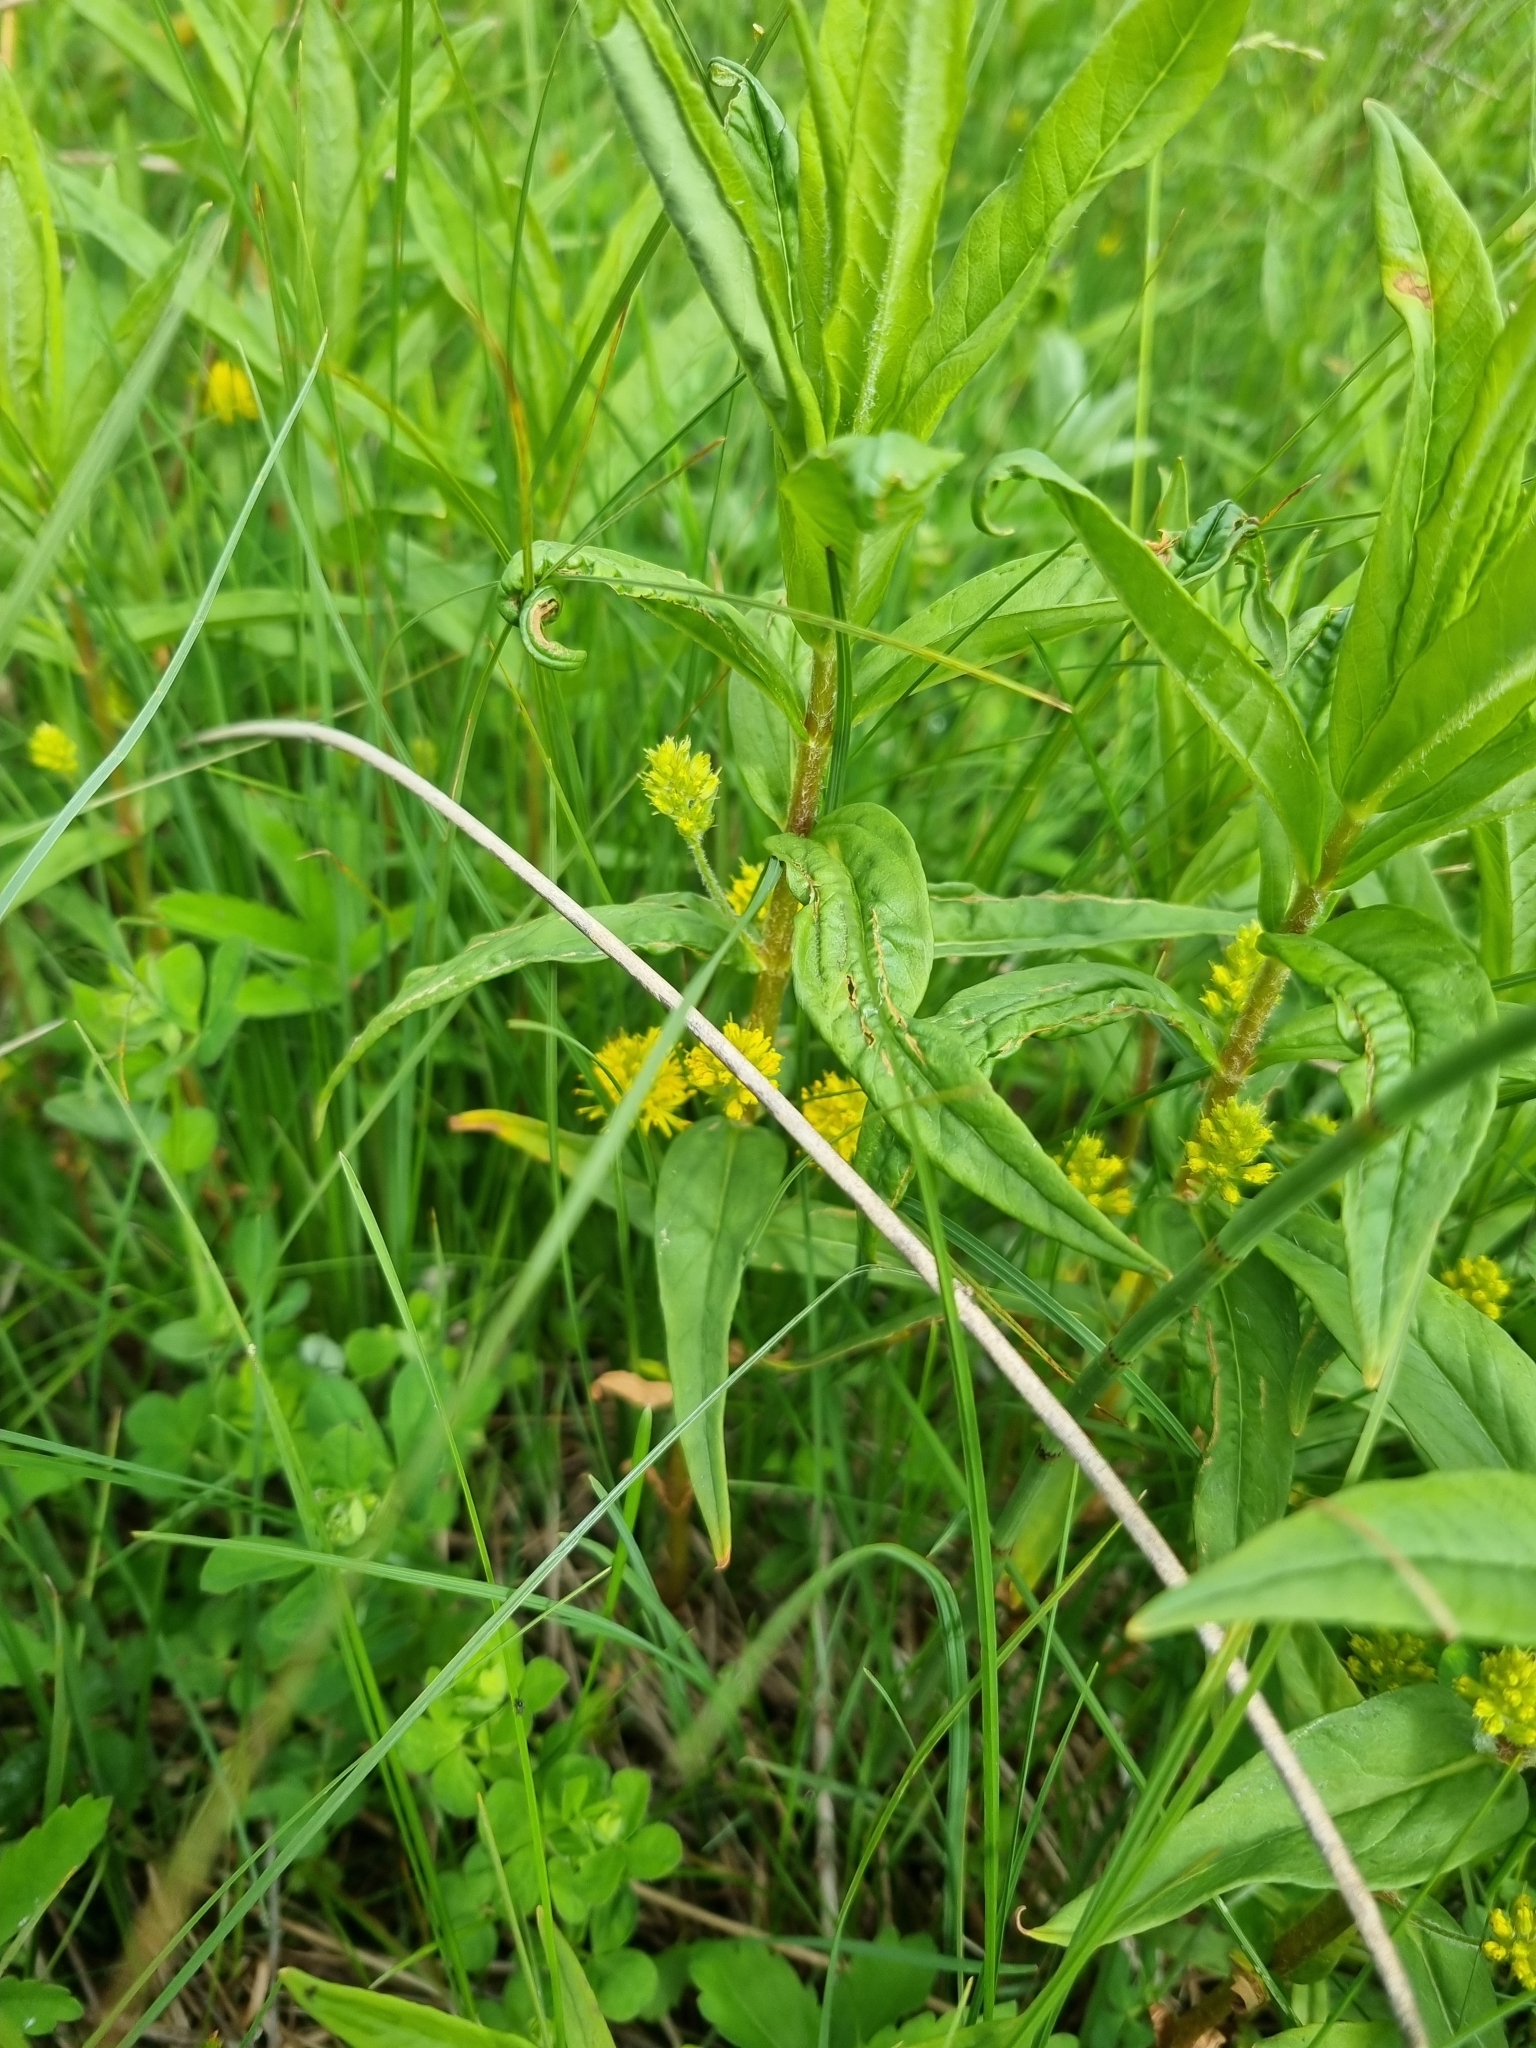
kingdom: Plantae
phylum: Tracheophyta
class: Magnoliopsida
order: Ericales
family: Primulaceae
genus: Lysimachia
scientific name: Lysimachia thyrsiflora
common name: Tufted loosestrife
